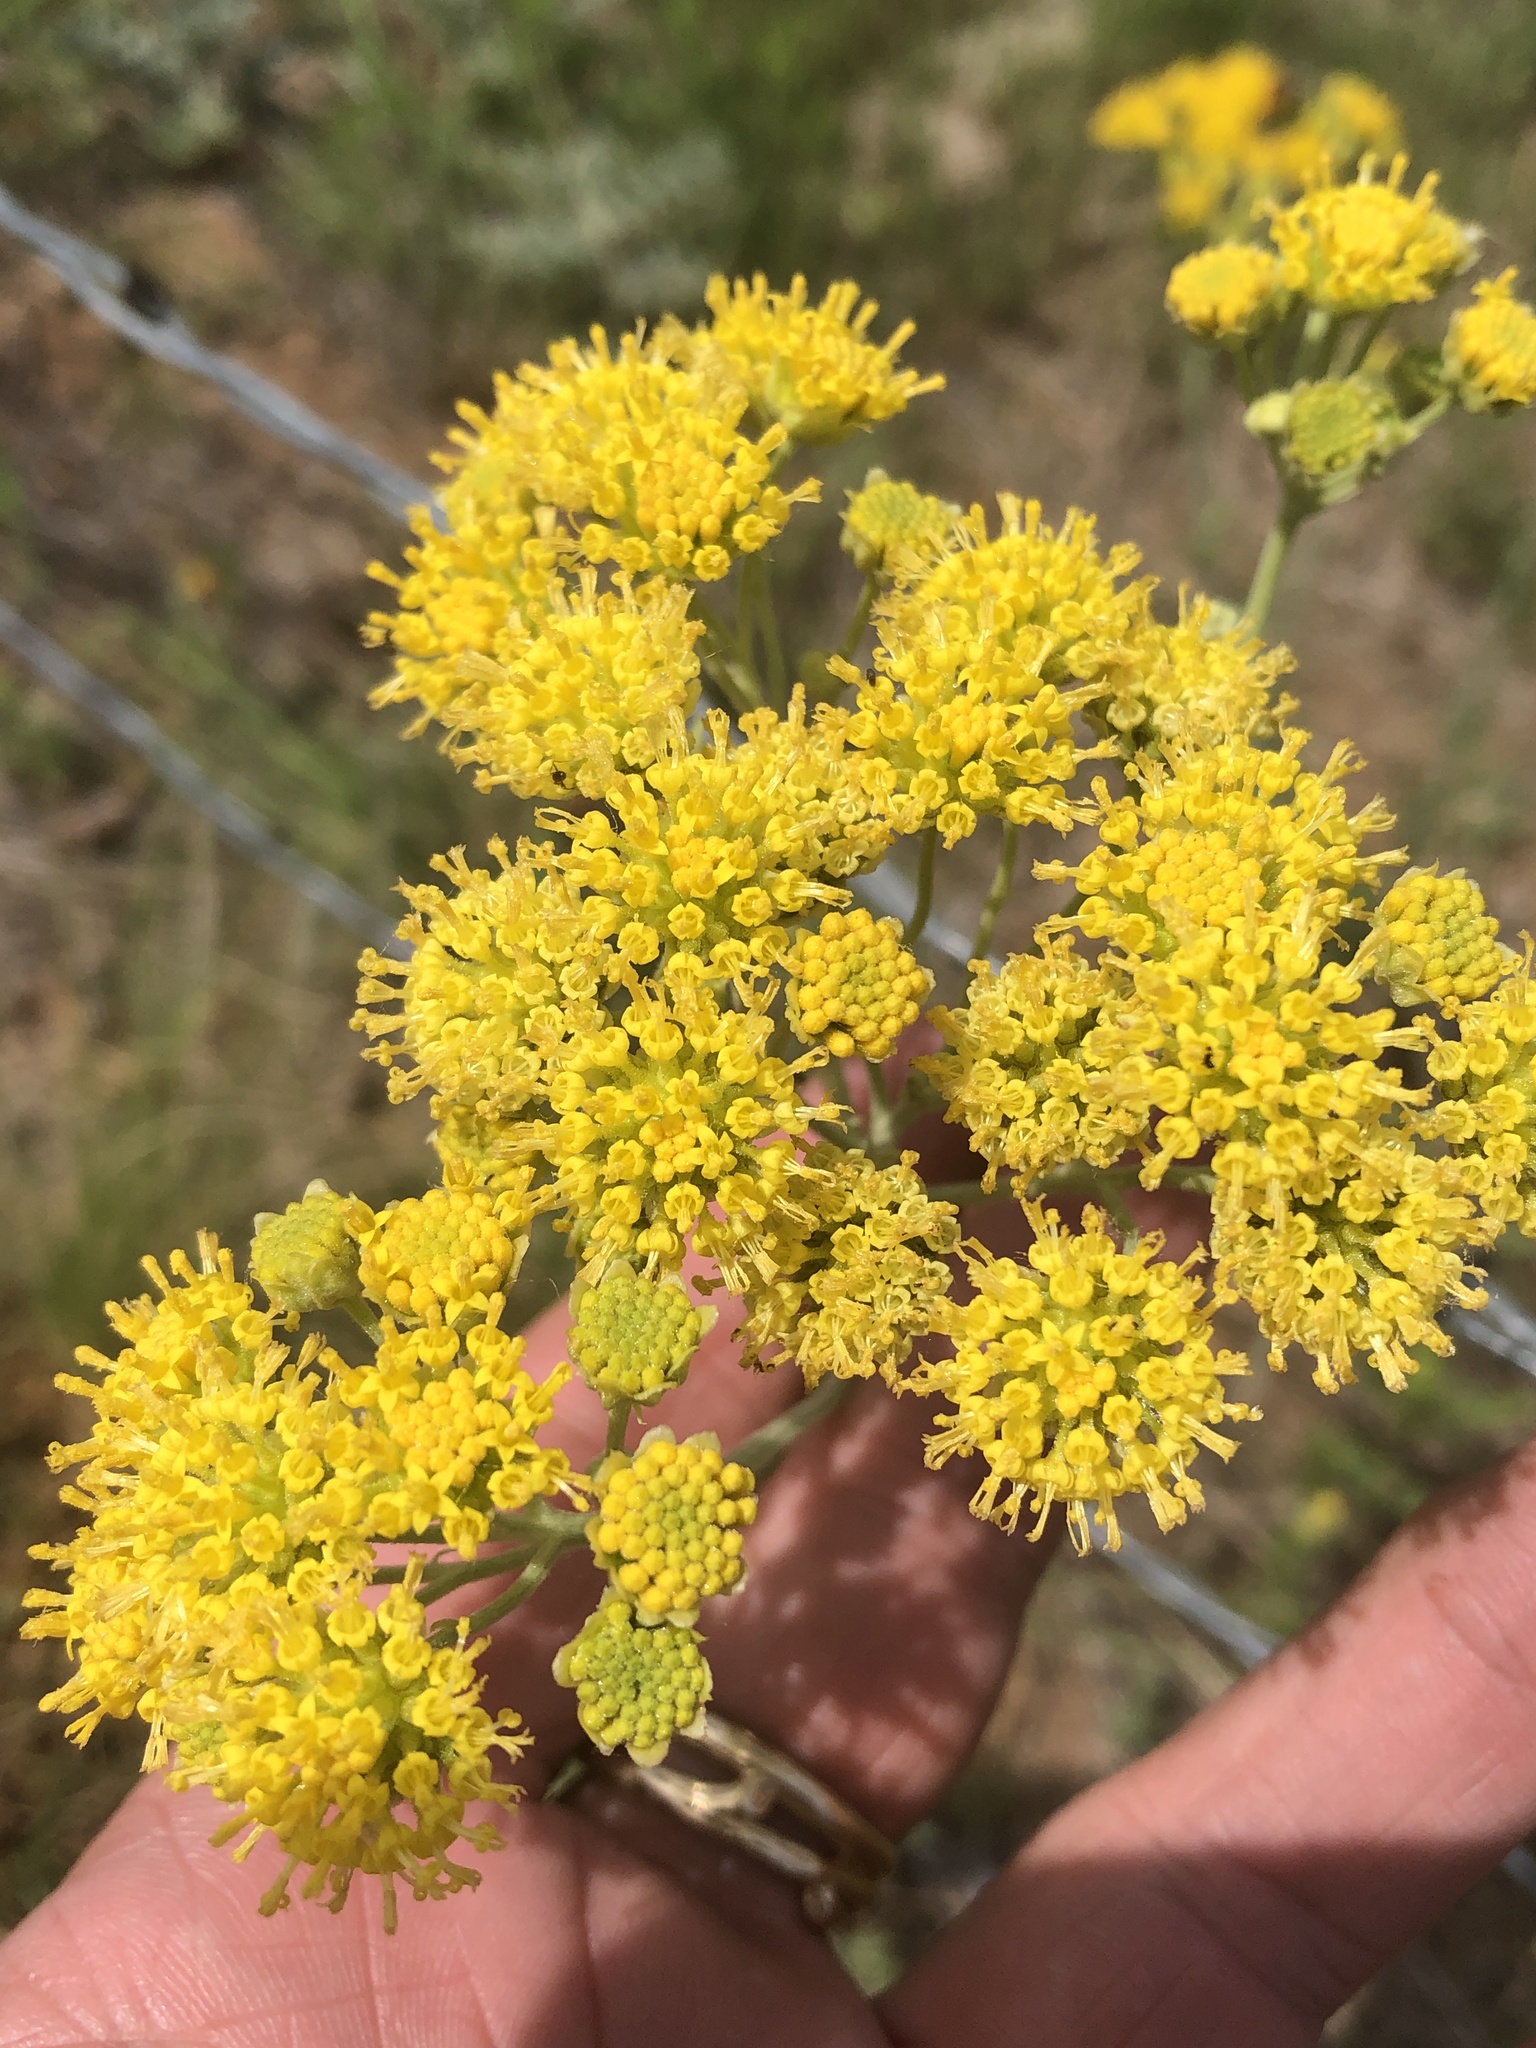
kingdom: Plantae
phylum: Tracheophyta
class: Magnoliopsida
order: Asterales
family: Asteraceae
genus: Hymenopappus
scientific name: Hymenopappus flavescens
